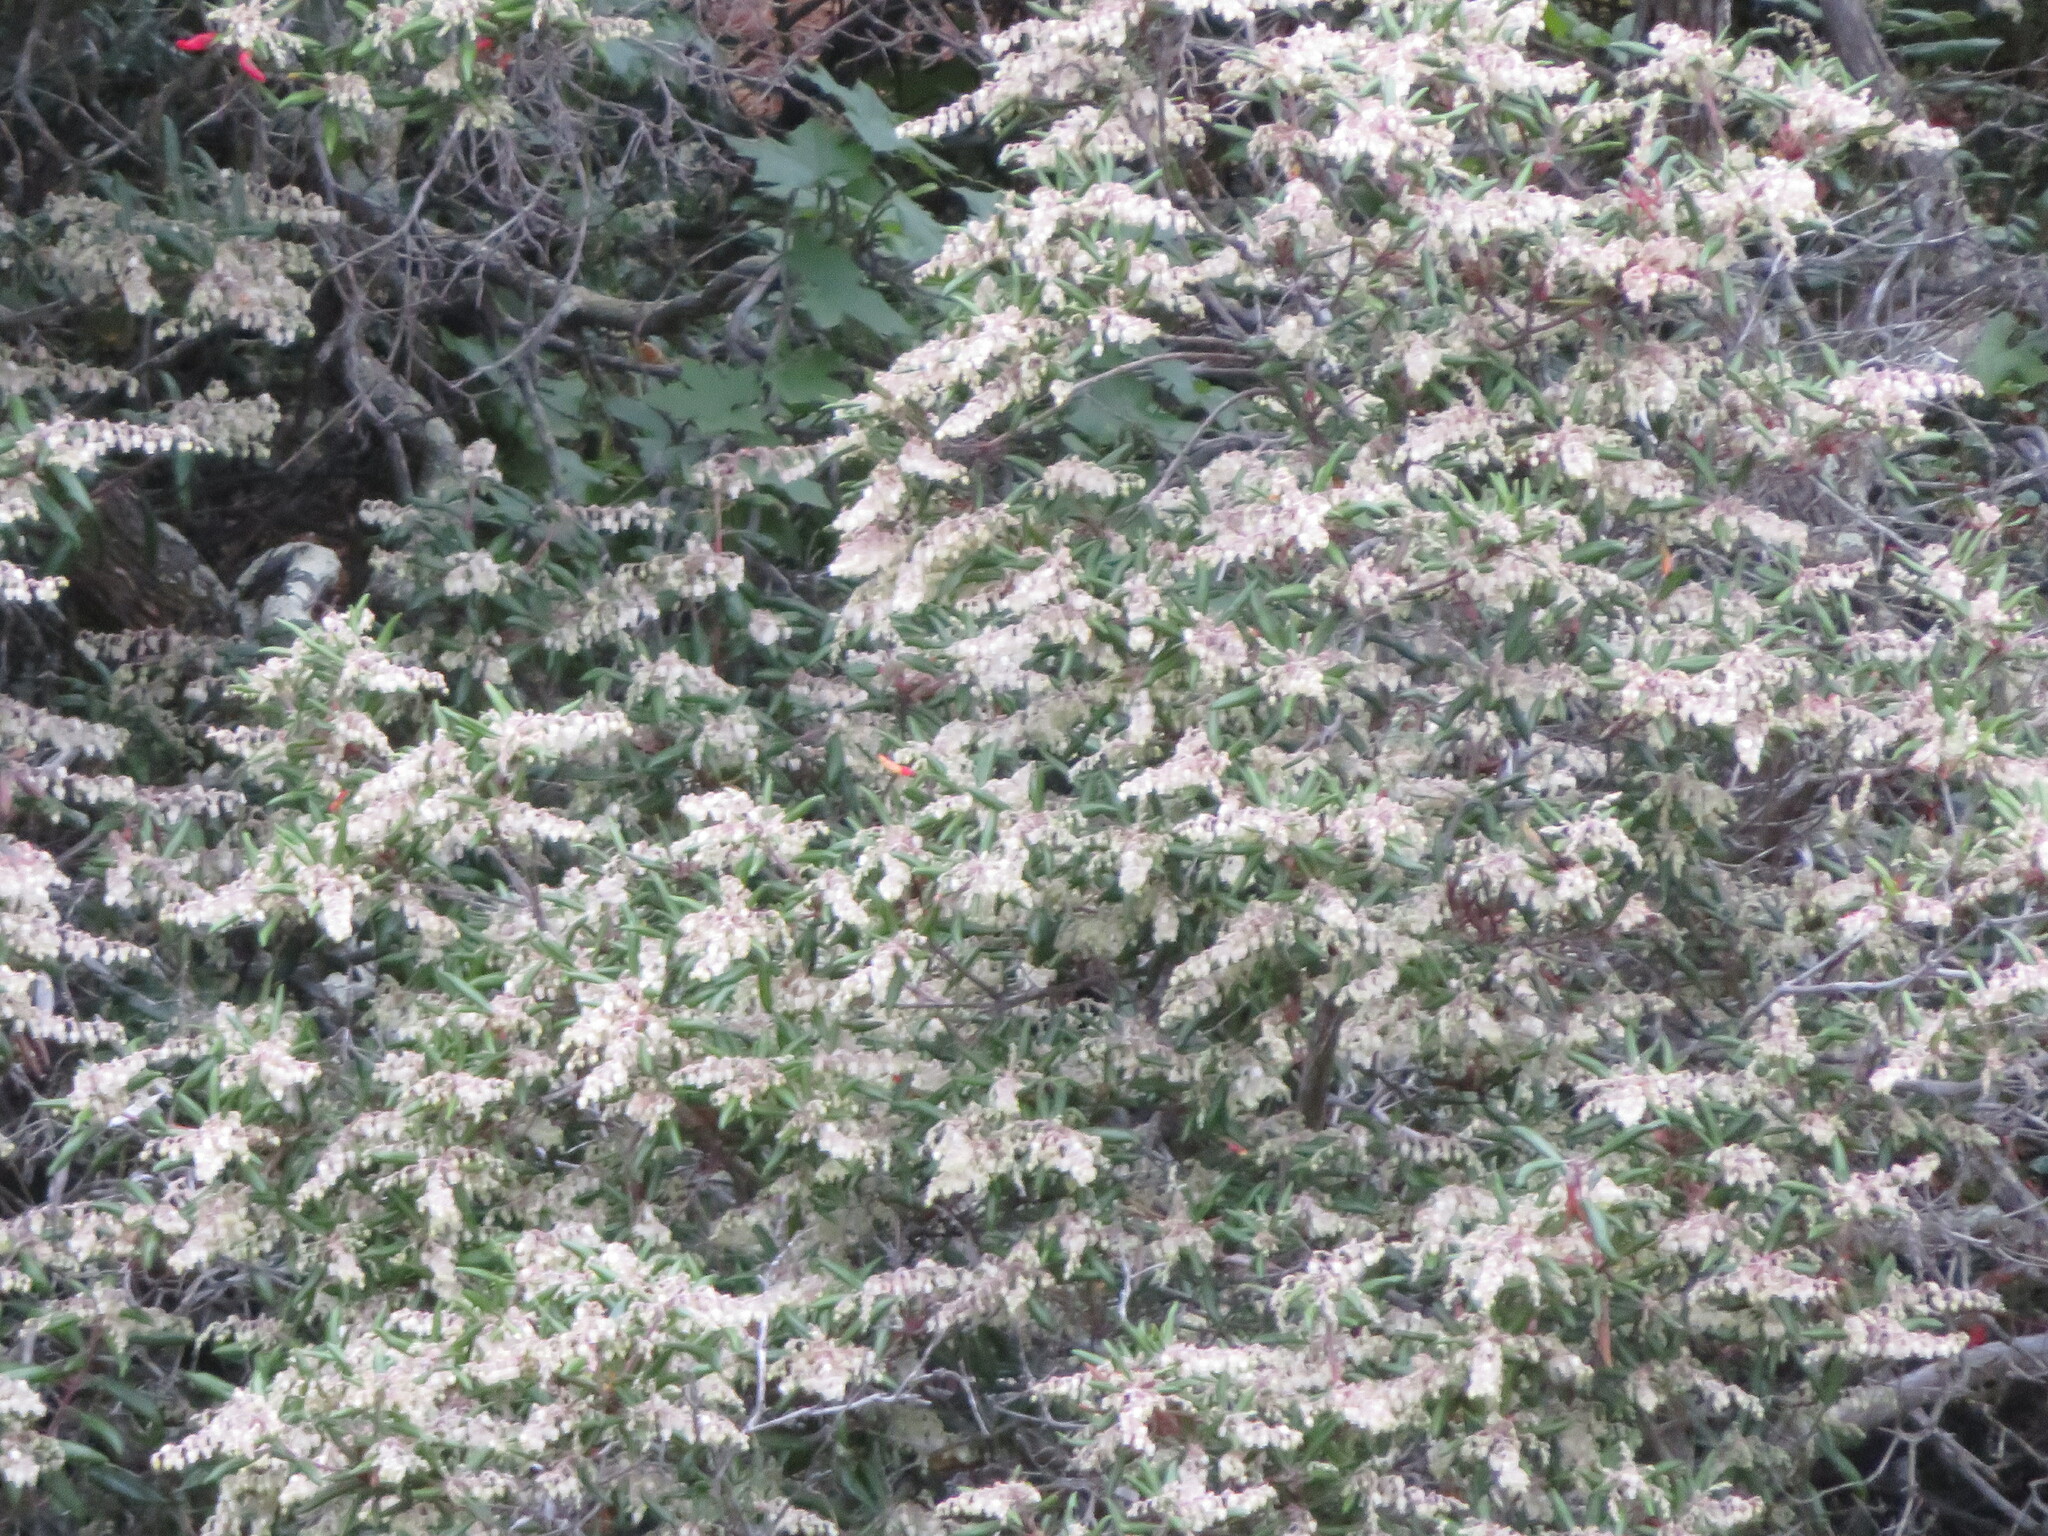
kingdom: Plantae
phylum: Tracheophyta
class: Magnoliopsida
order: Ericales
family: Ericaceae
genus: Comarostaphylis
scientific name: Comarostaphylis diversifolia
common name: Summer-holly
